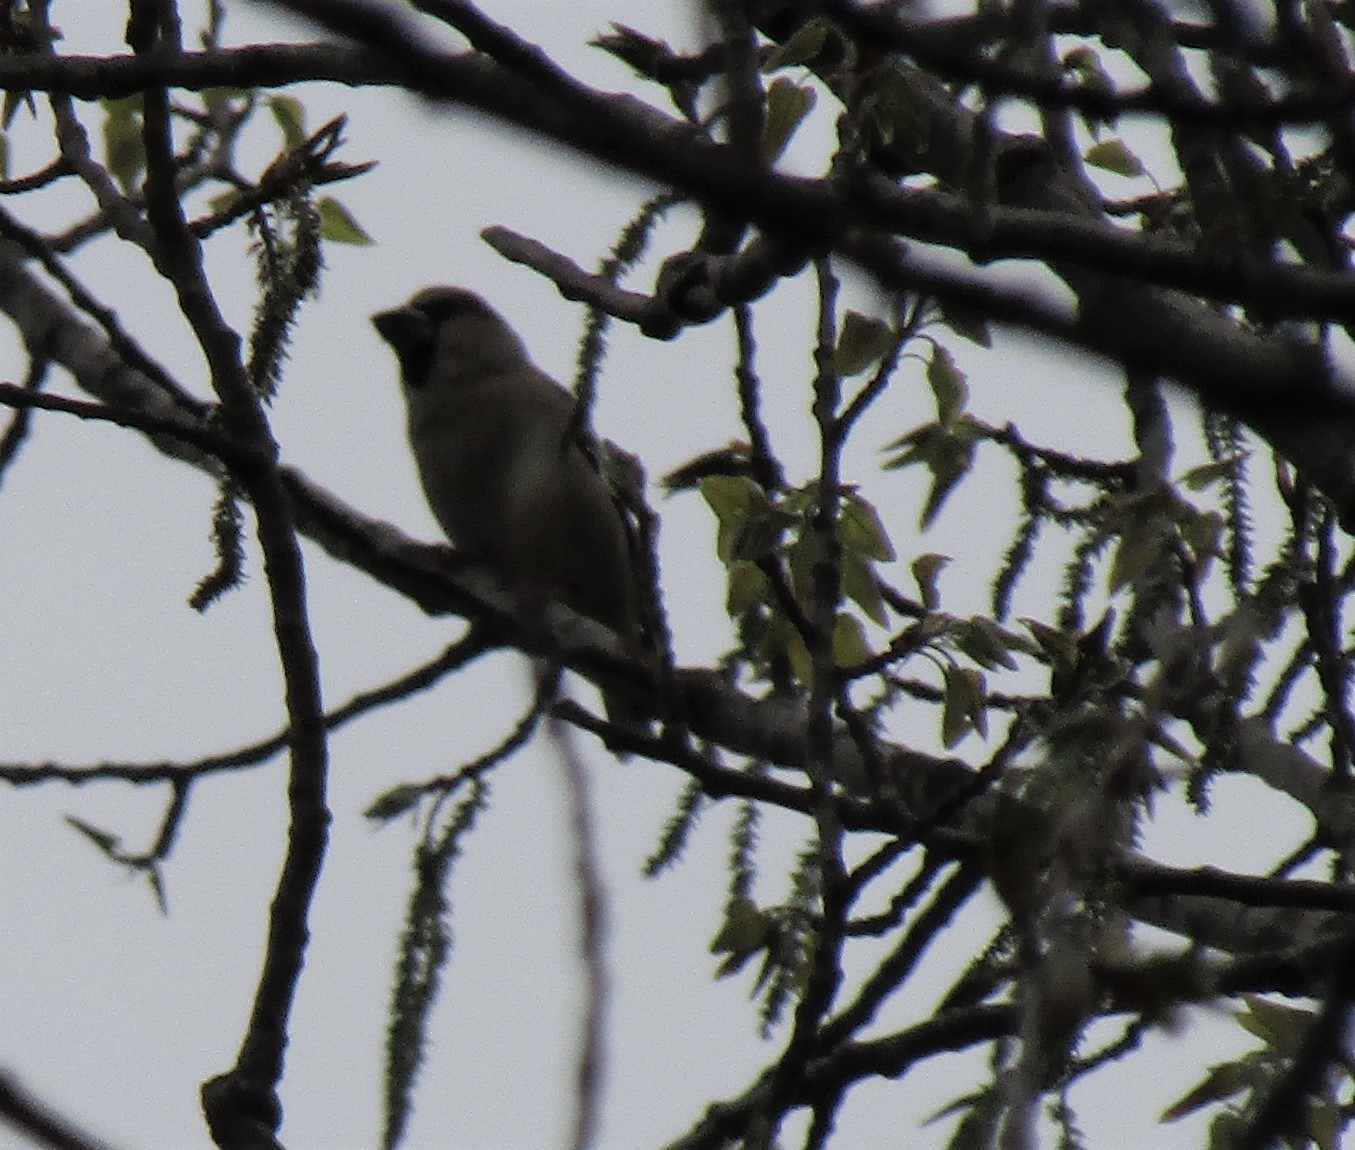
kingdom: Animalia
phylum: Chordata
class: Aves
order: Passeriformes
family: Fringillidae
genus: Coccothraustes
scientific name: Coccothraustes coccothraustes
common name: Hawfinch
